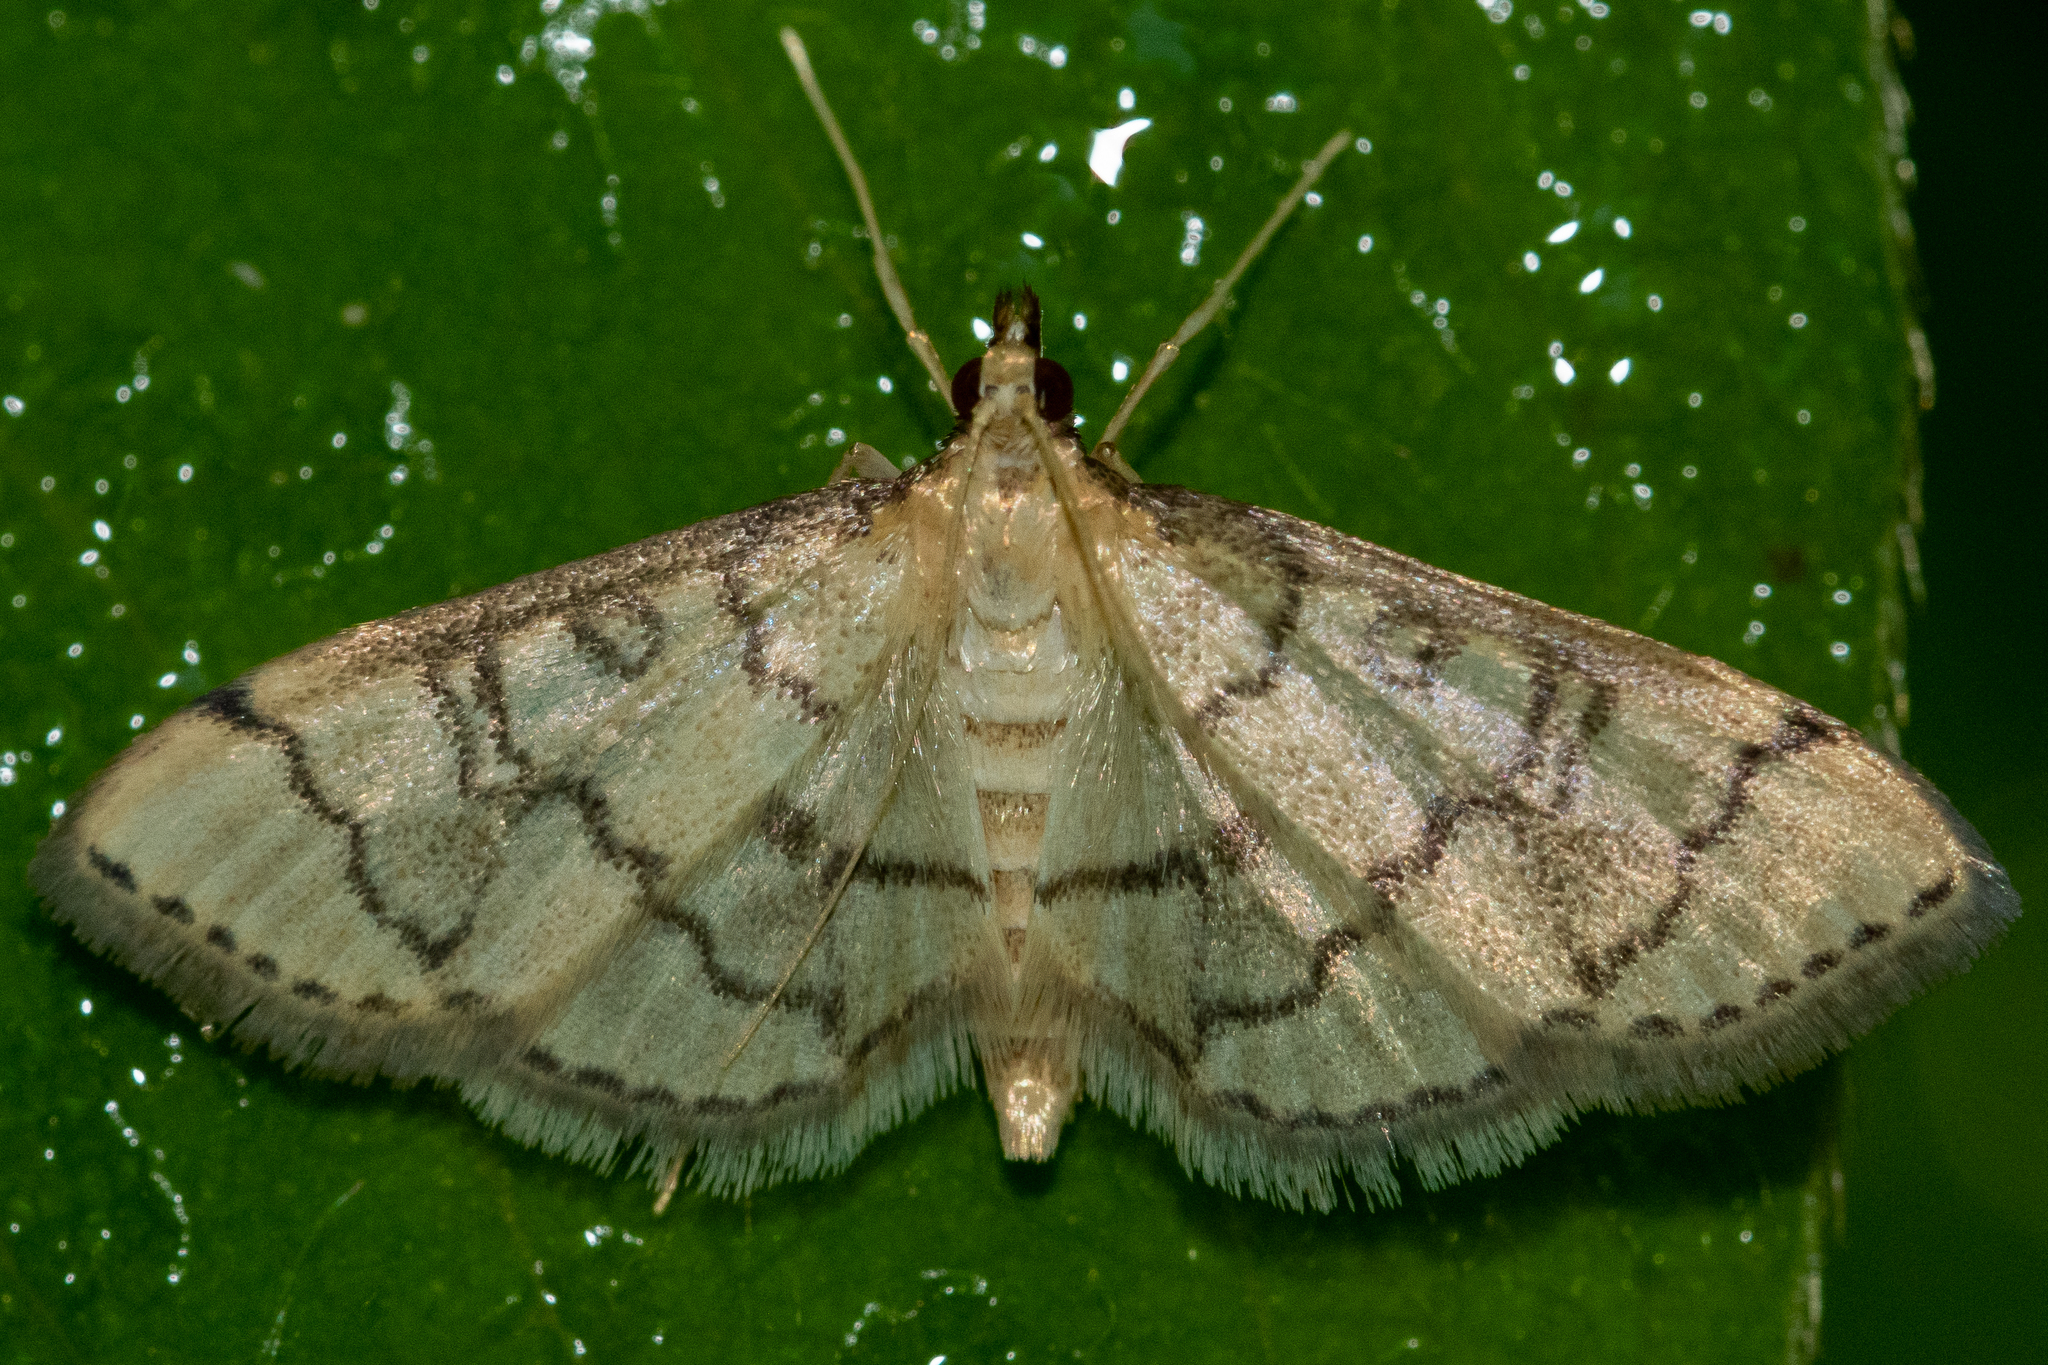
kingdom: Animalia
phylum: Arthropoda
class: Insecta
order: Lepidoptera
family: Crambidae
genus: Lamprosema
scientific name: Lamprosema Blepharomastix ranalis
